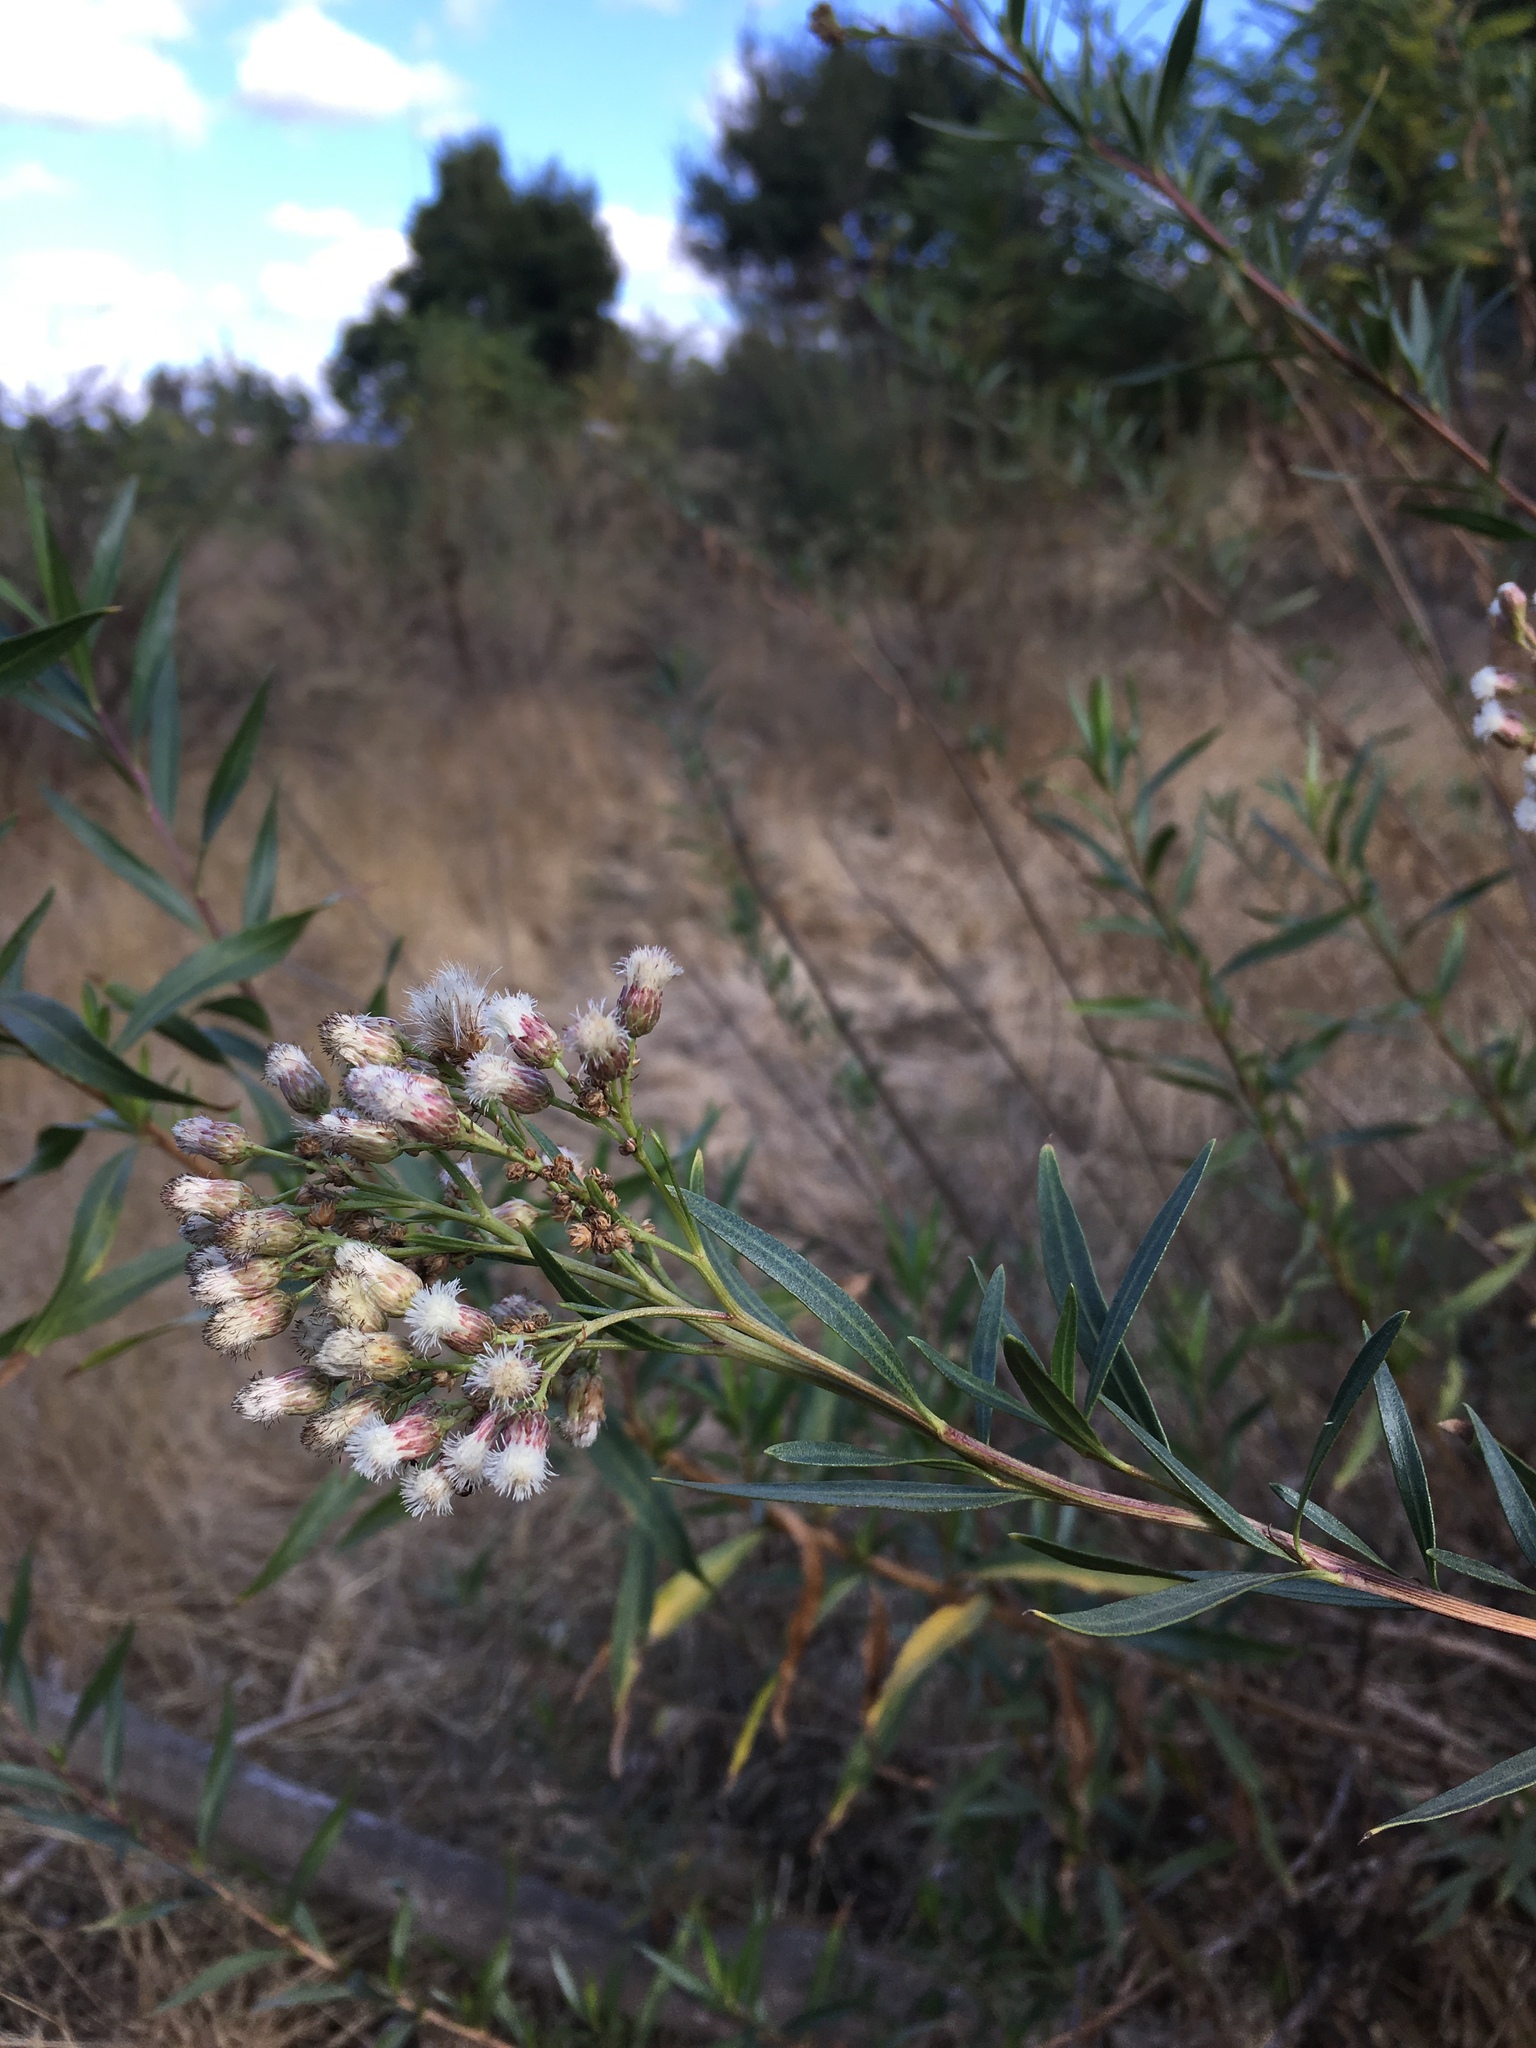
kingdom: Plantae
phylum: Tracheophyta
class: Magnoliopsida
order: Asterales
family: Asteraceae
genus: Baccharis
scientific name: Baccharis salicifolia
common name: Sticky baccharis
